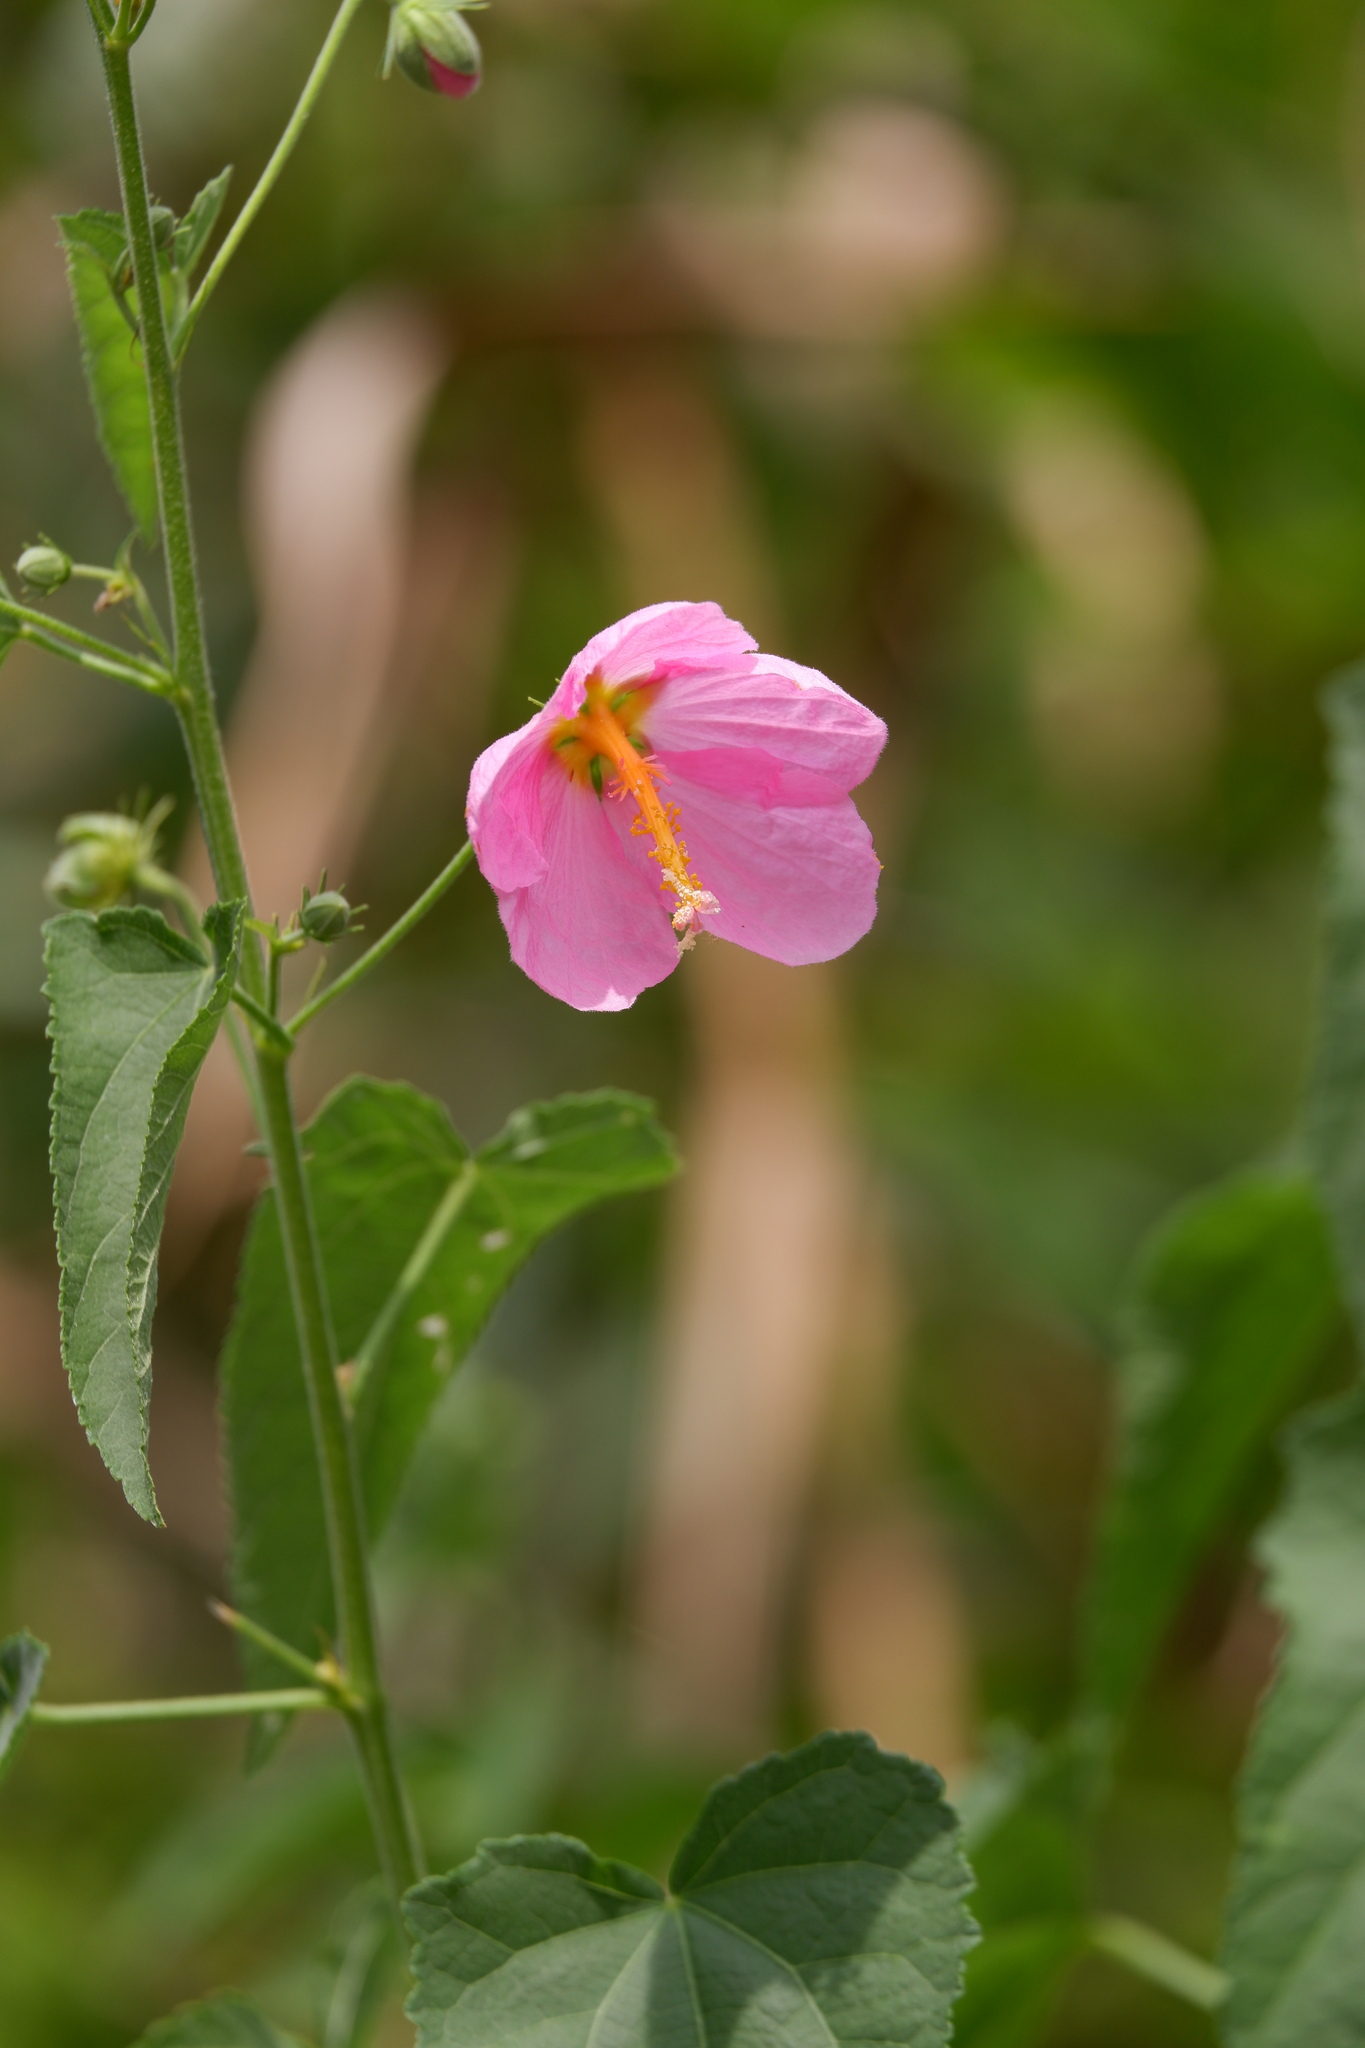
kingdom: Plantae
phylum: Tracheophyta
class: Magnoliopsida
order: Malvales
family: Malvaceae
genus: Kosteletzkya
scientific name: Kosteletzkya pentacarpos
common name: Virginia saltmarsh mallow
